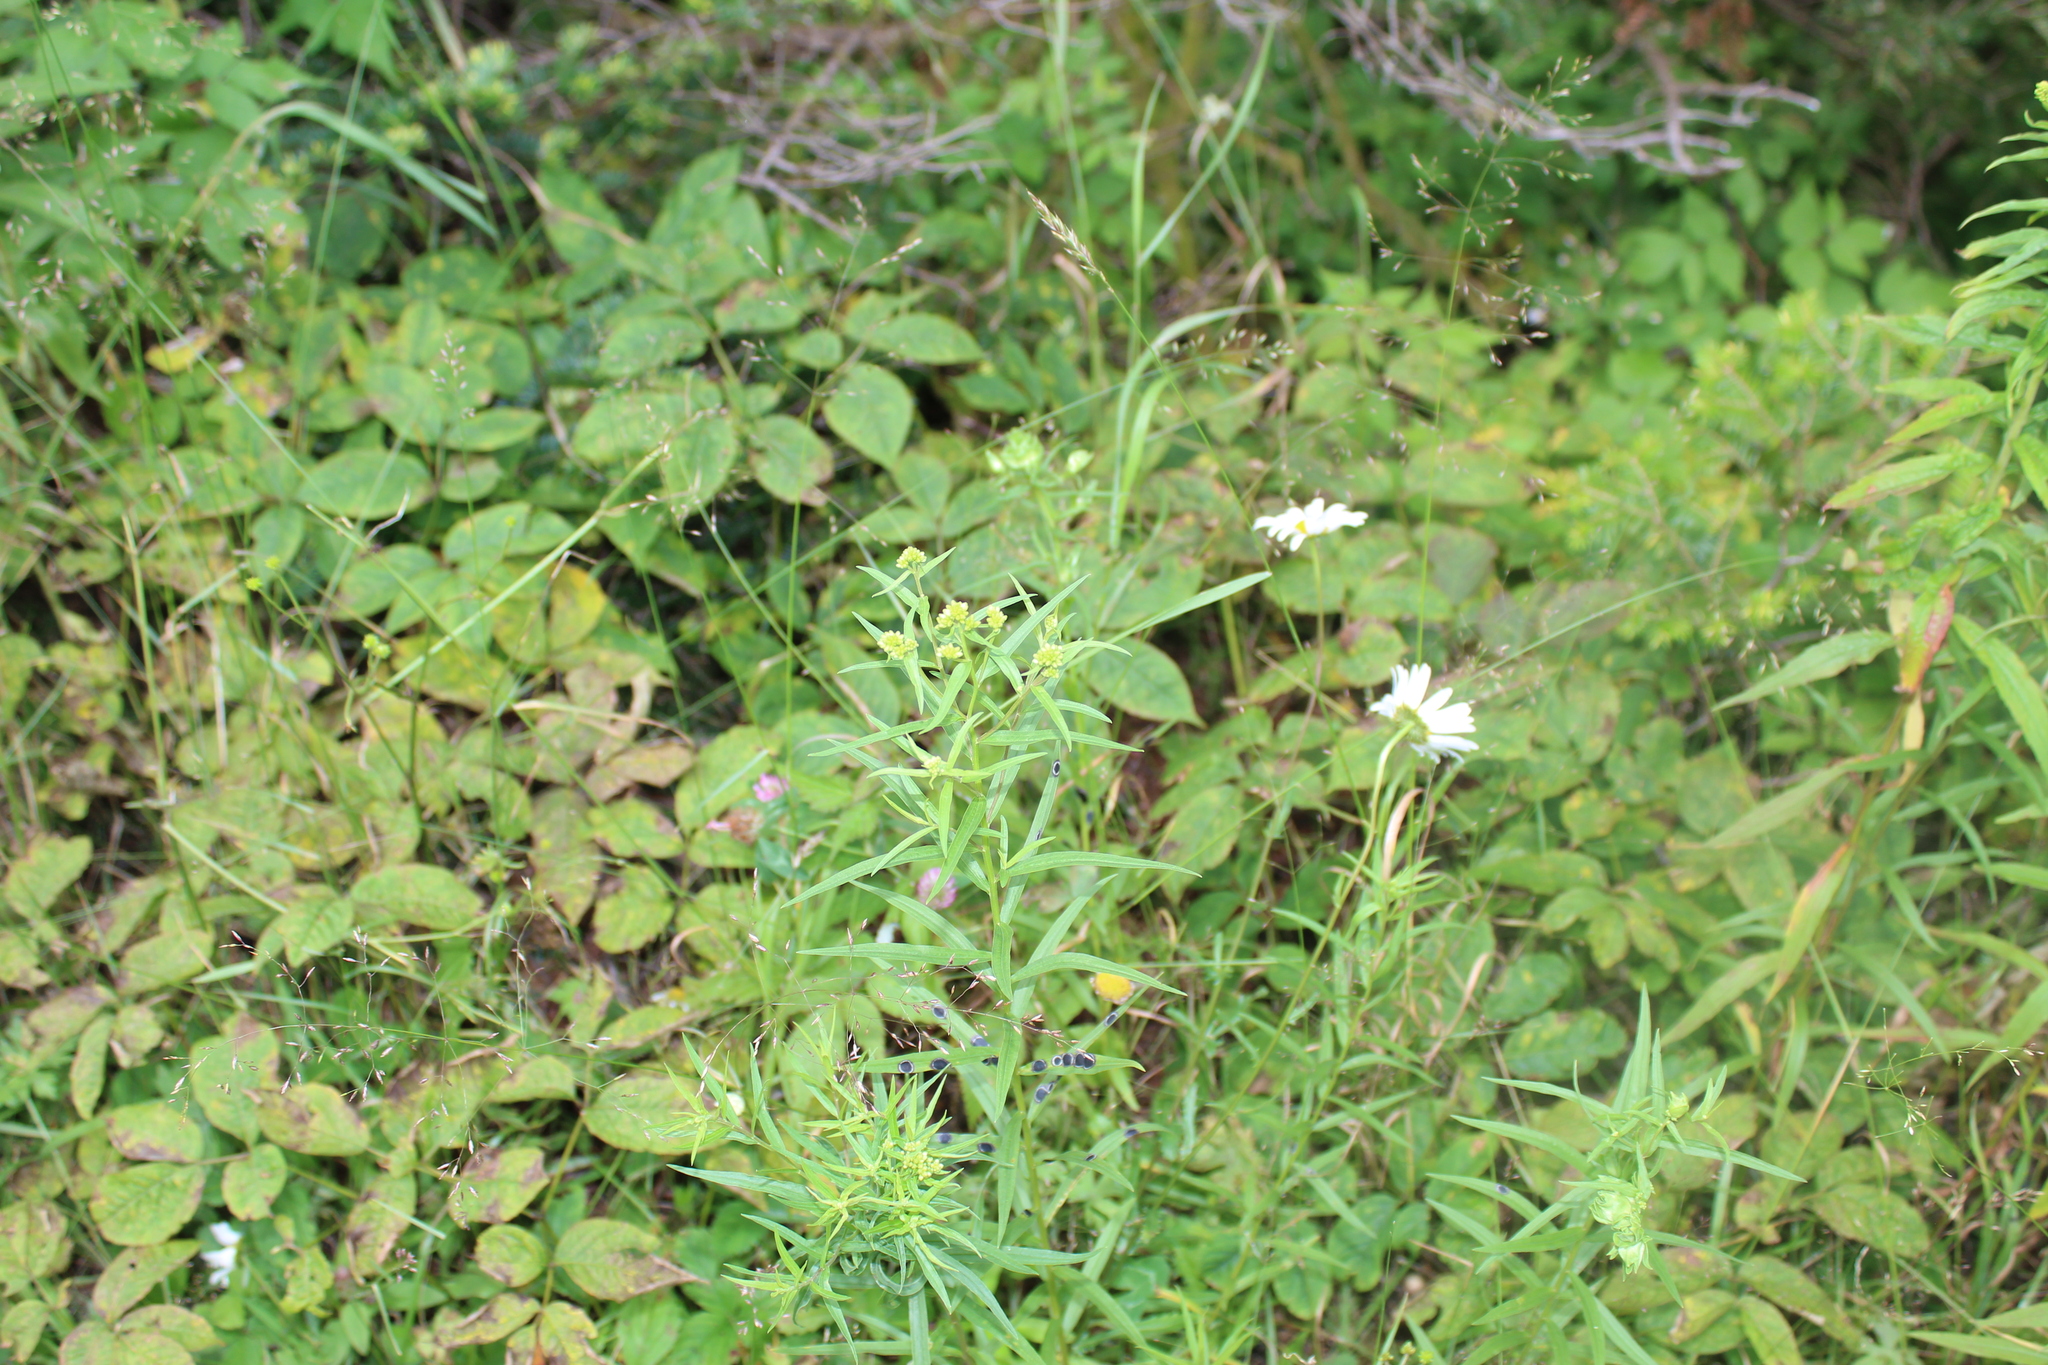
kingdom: Plantae
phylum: Tracheophyta
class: Magnoliopsida
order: Asterales
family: Asteraceae
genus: Euthamia
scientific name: Euthamia graminifolia
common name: Common goldentop
